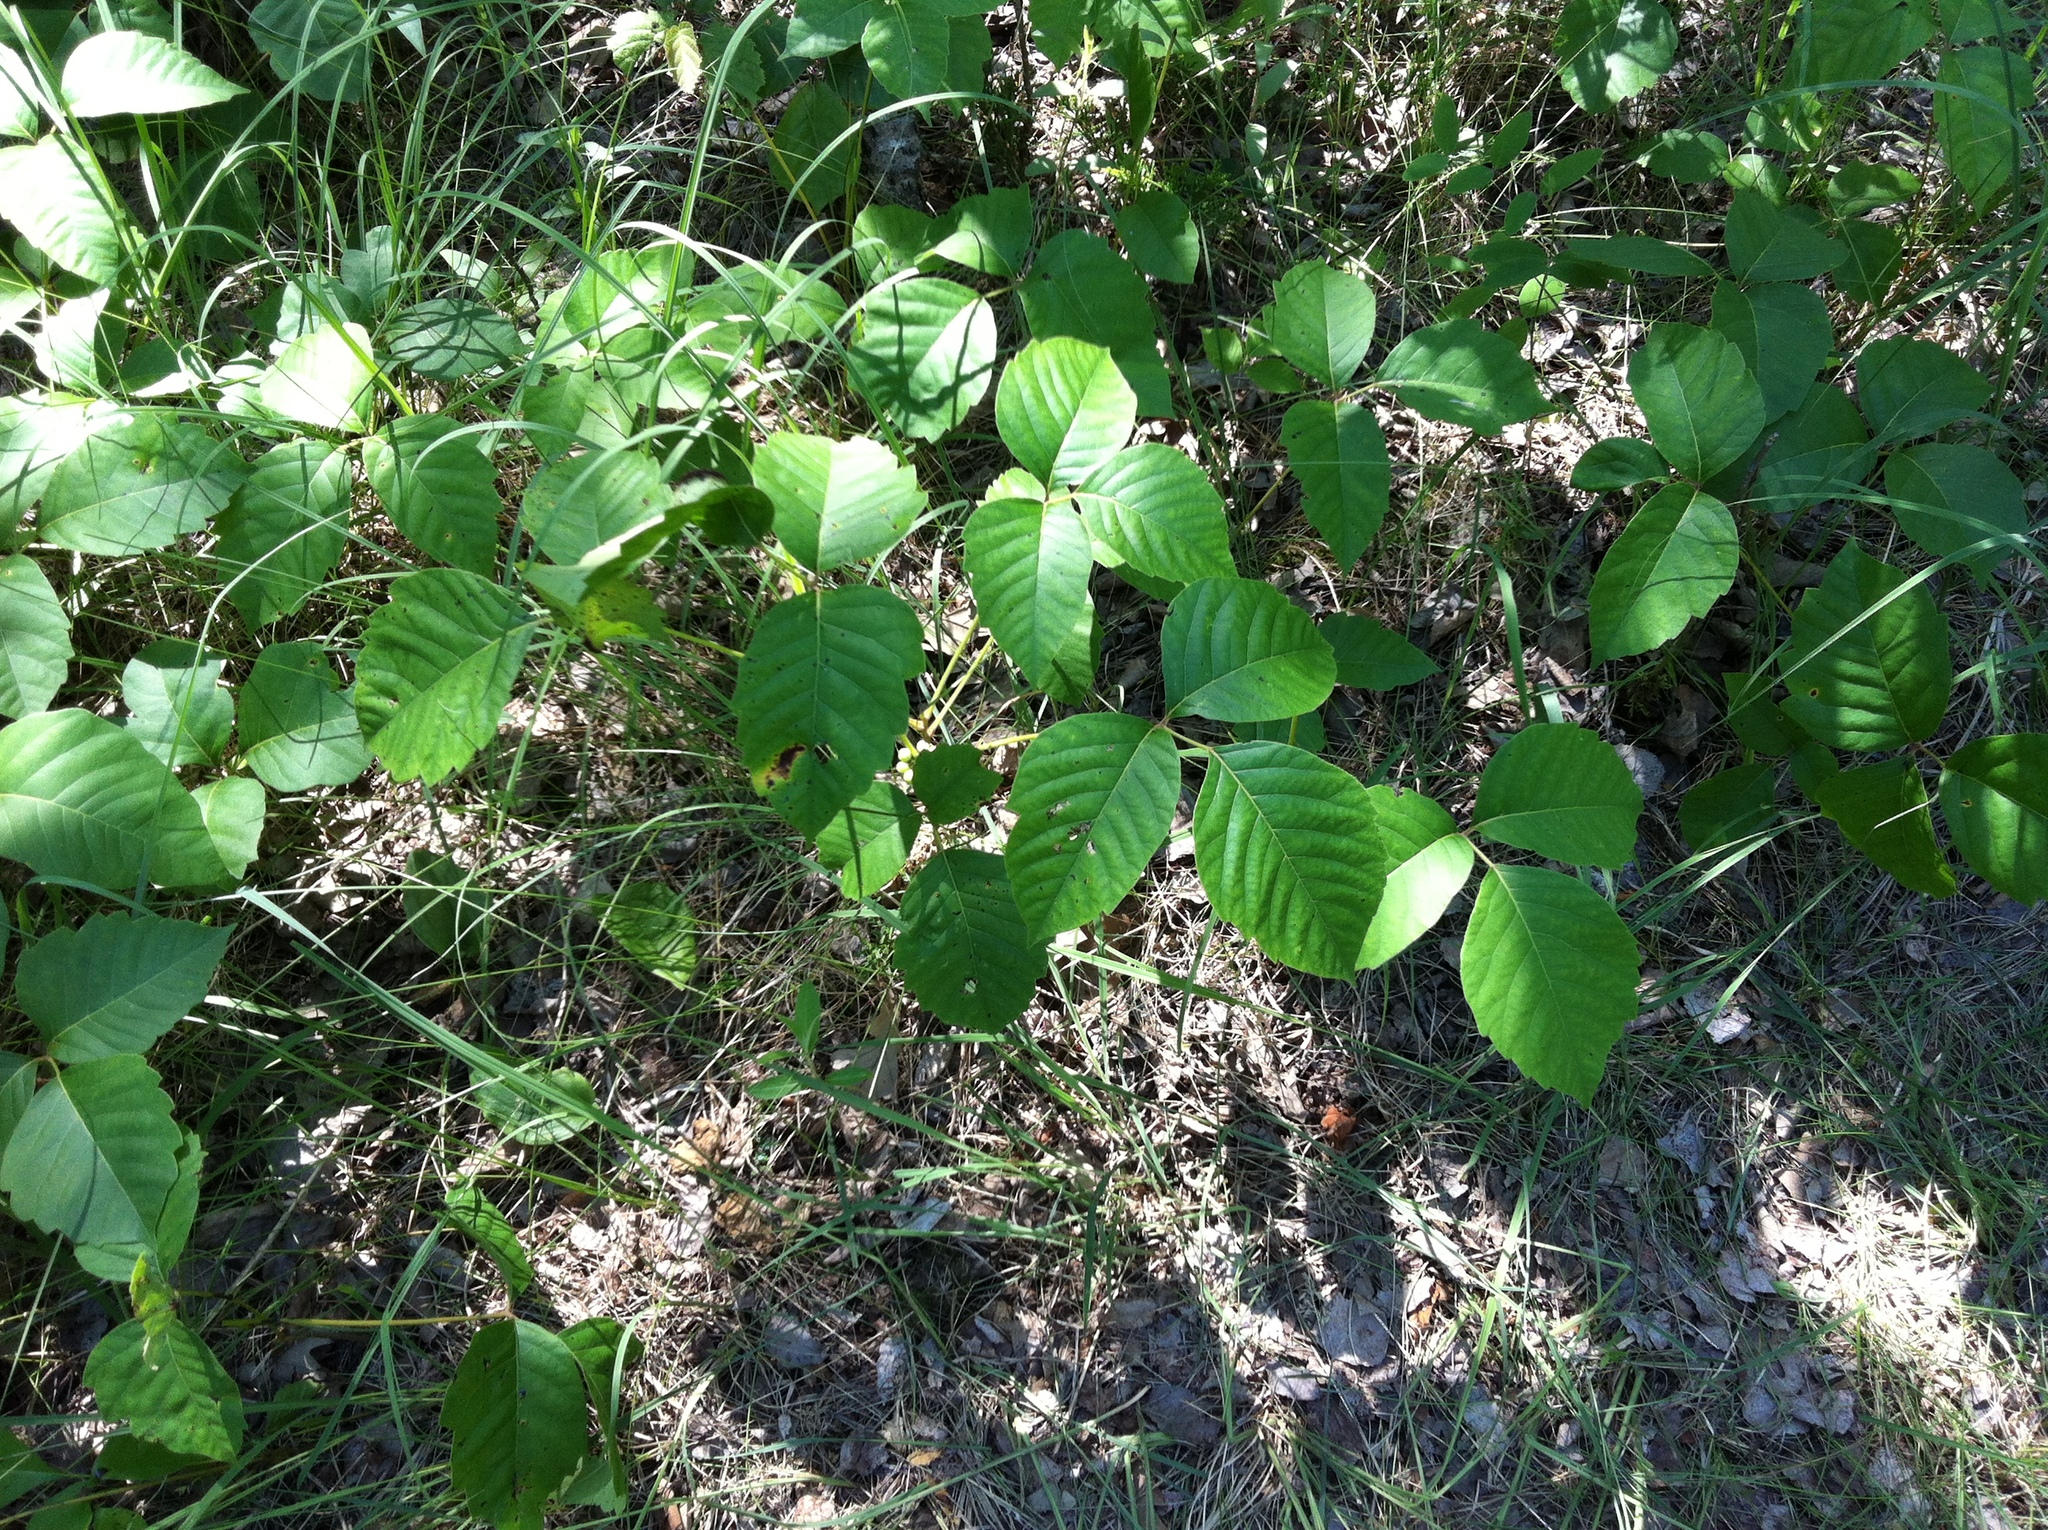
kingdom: Plantae
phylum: Tracheophyta
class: Magnoliopsida
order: Sapindales
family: Anacardiaceae
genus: Toxicodendron
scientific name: Toxicodendron rydbergii
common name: Rydberg's poison-ivy
